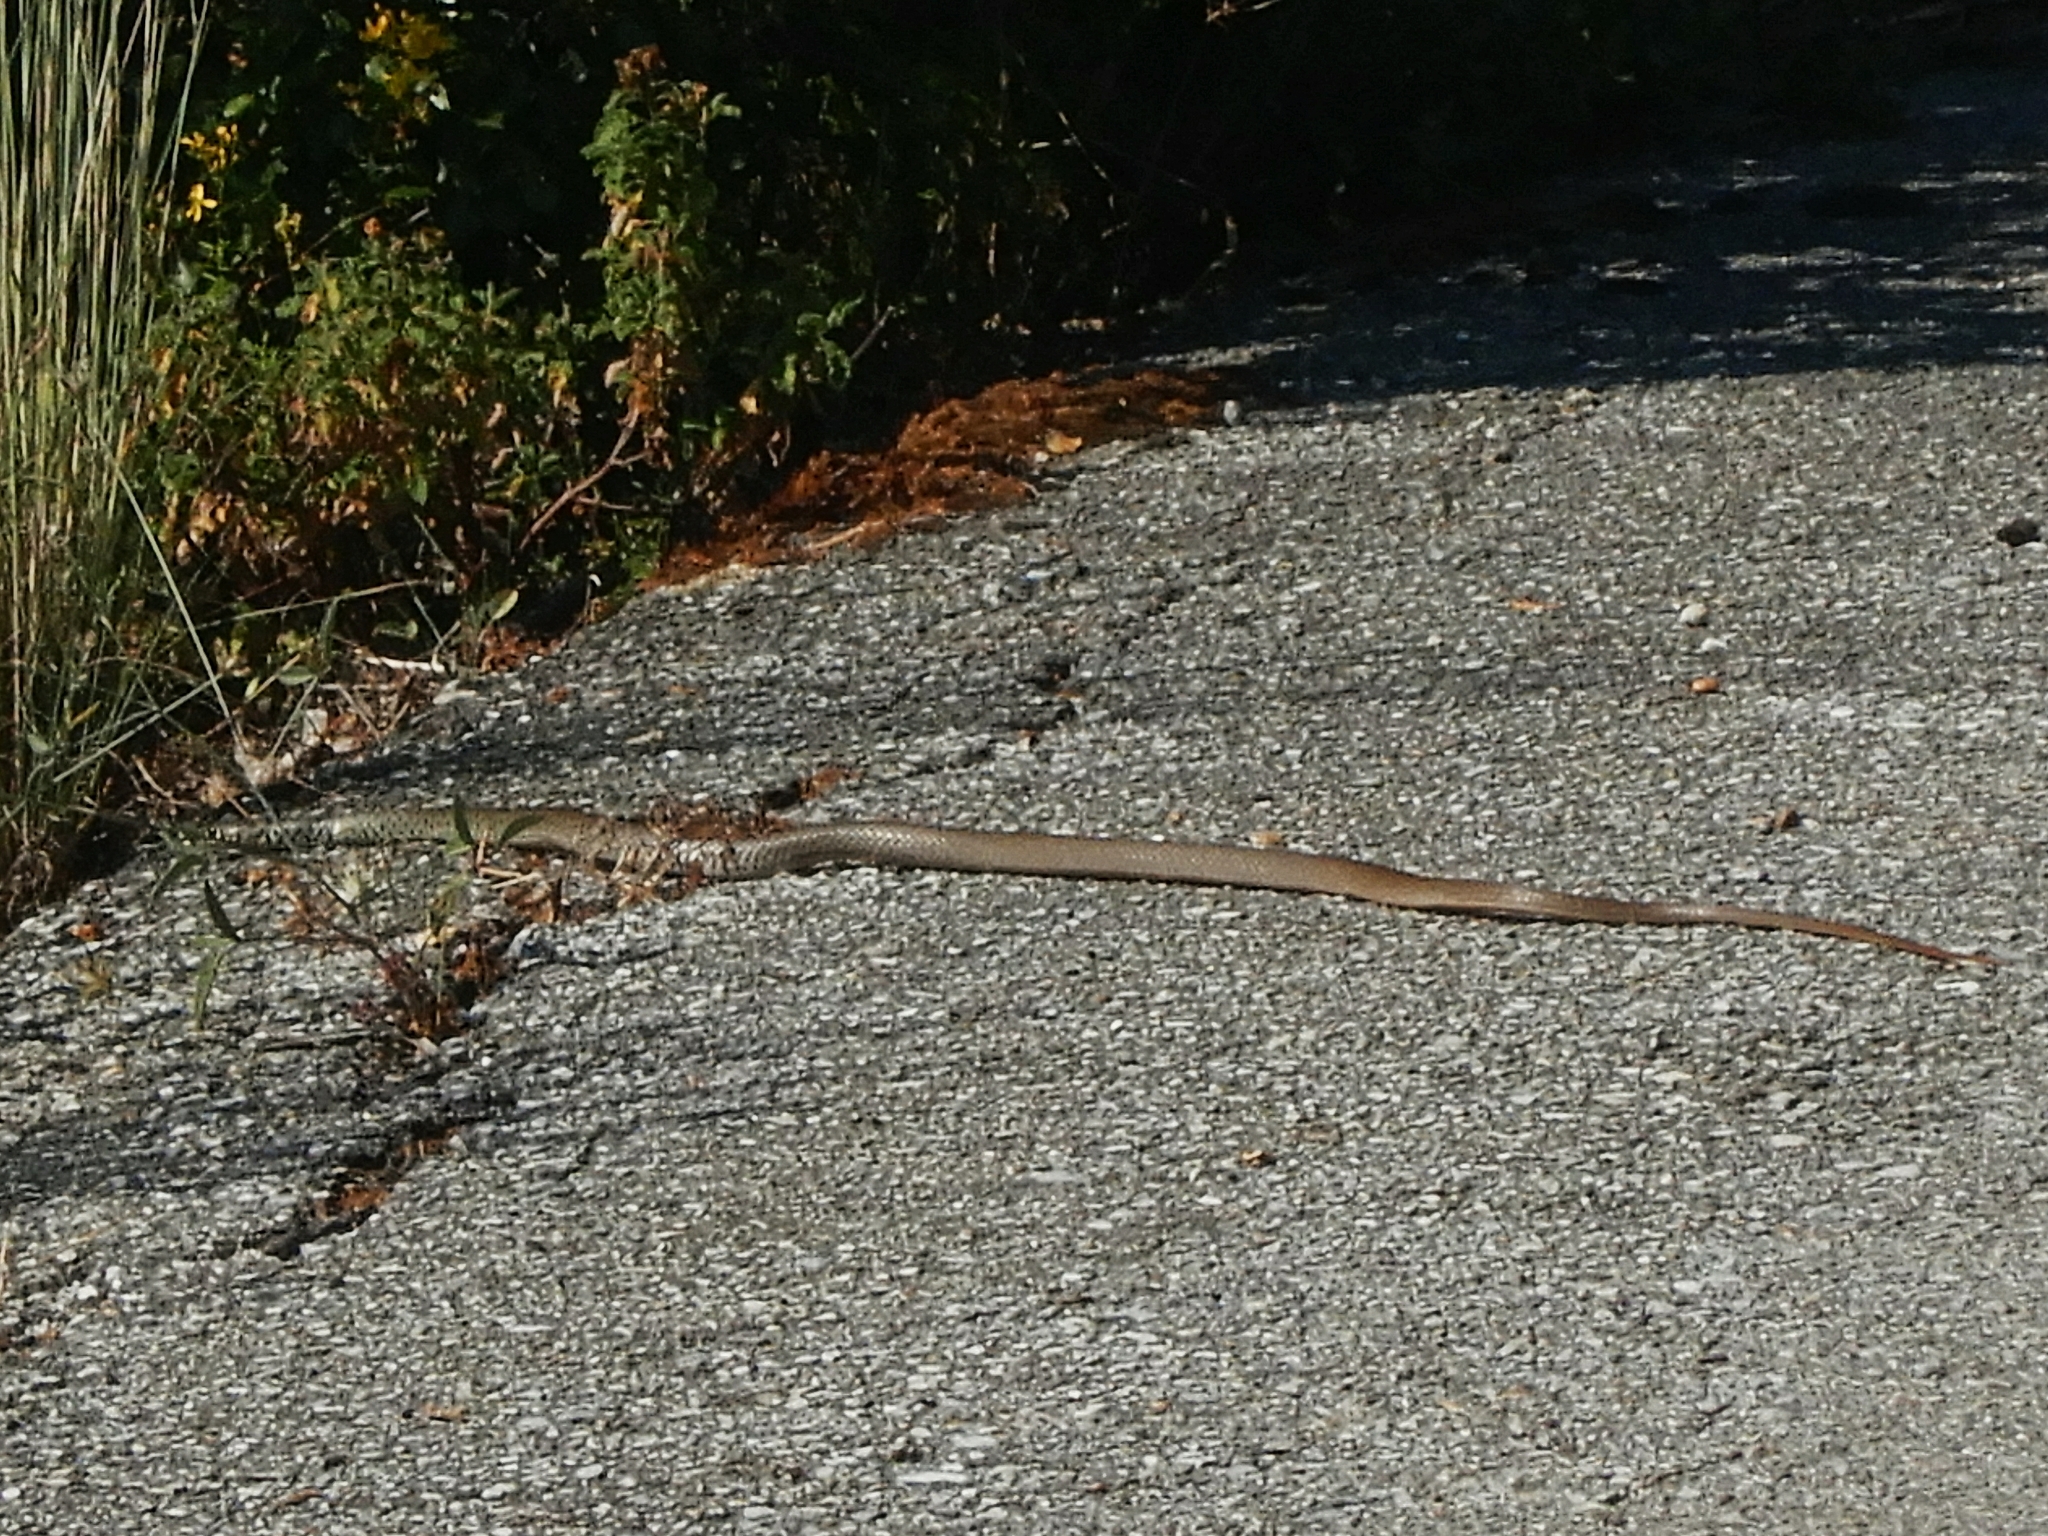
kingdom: Animalia
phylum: Chordata
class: Squamata
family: Colubridae
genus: Hierophis
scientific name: Hierophis gemonensis
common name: Balkan whip snake
